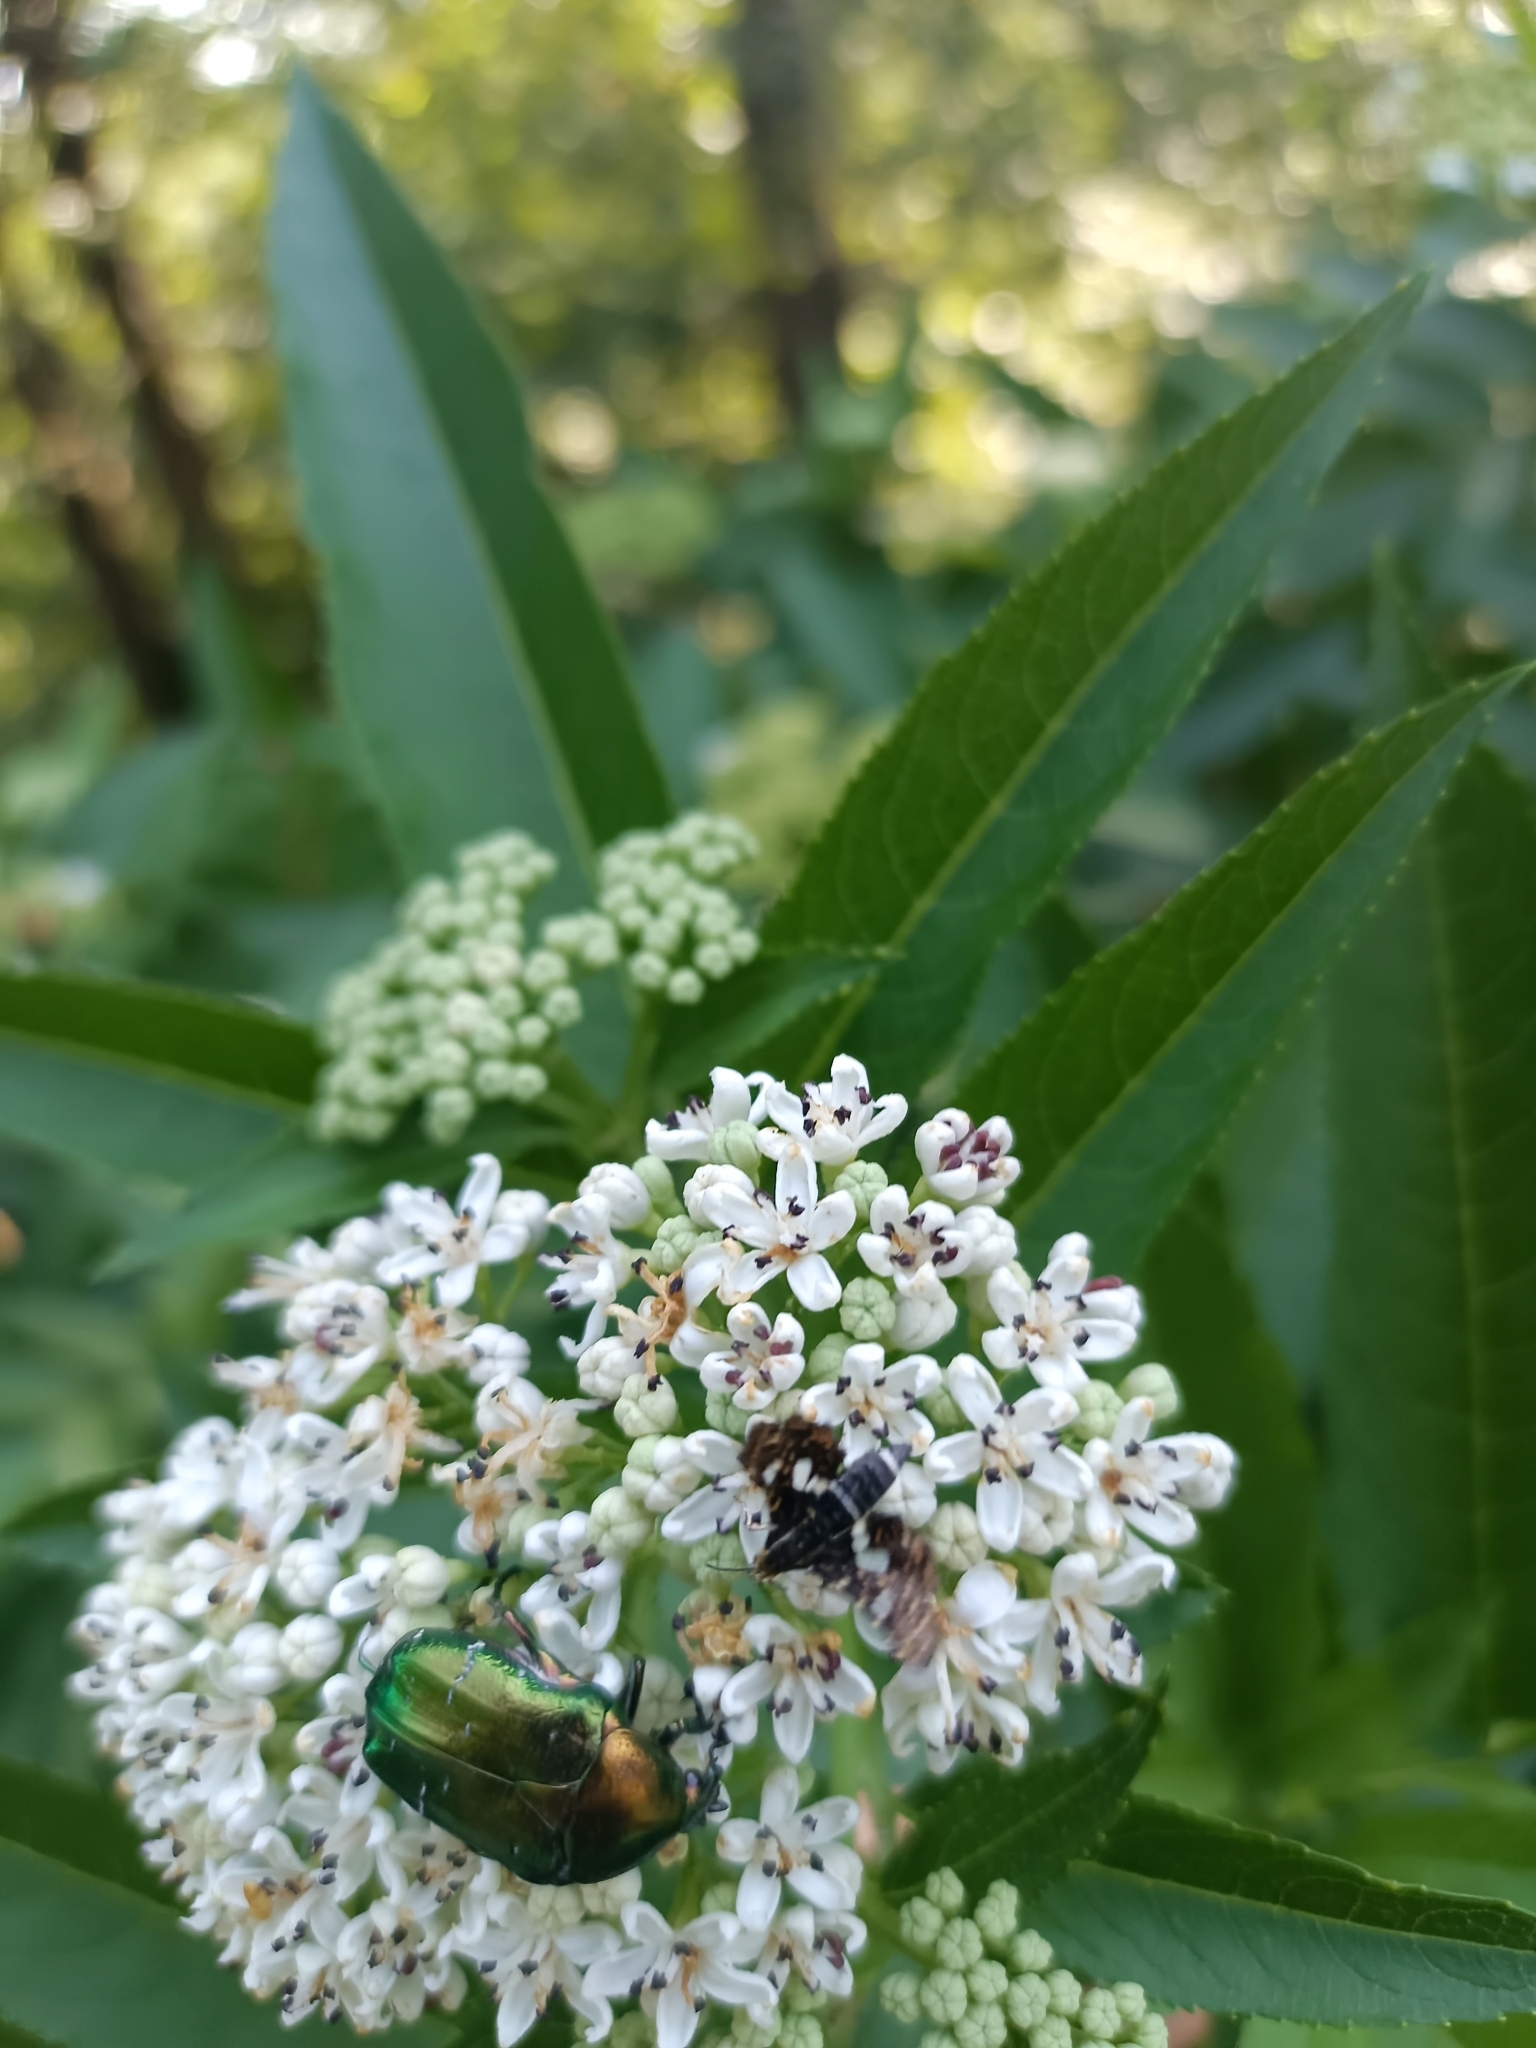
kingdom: Animalia
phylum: Arthropoda
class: Insecta
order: Lepidoptera
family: Thyrididae
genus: Thyris
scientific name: Thyris fenestrella
